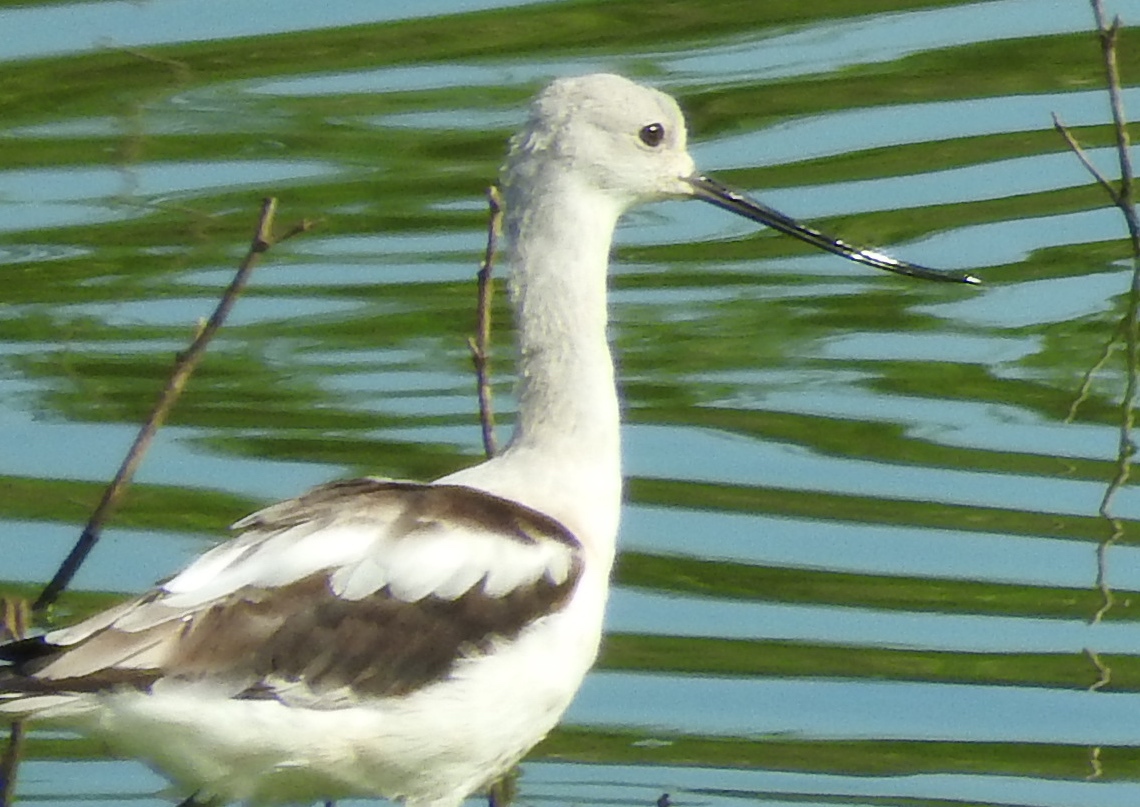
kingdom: Animalia
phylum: Chordata
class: Aves
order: Charadriiformes
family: Recurvirostridae
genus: Recurvirostra
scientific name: Recurvirostra americana
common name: American avocet
